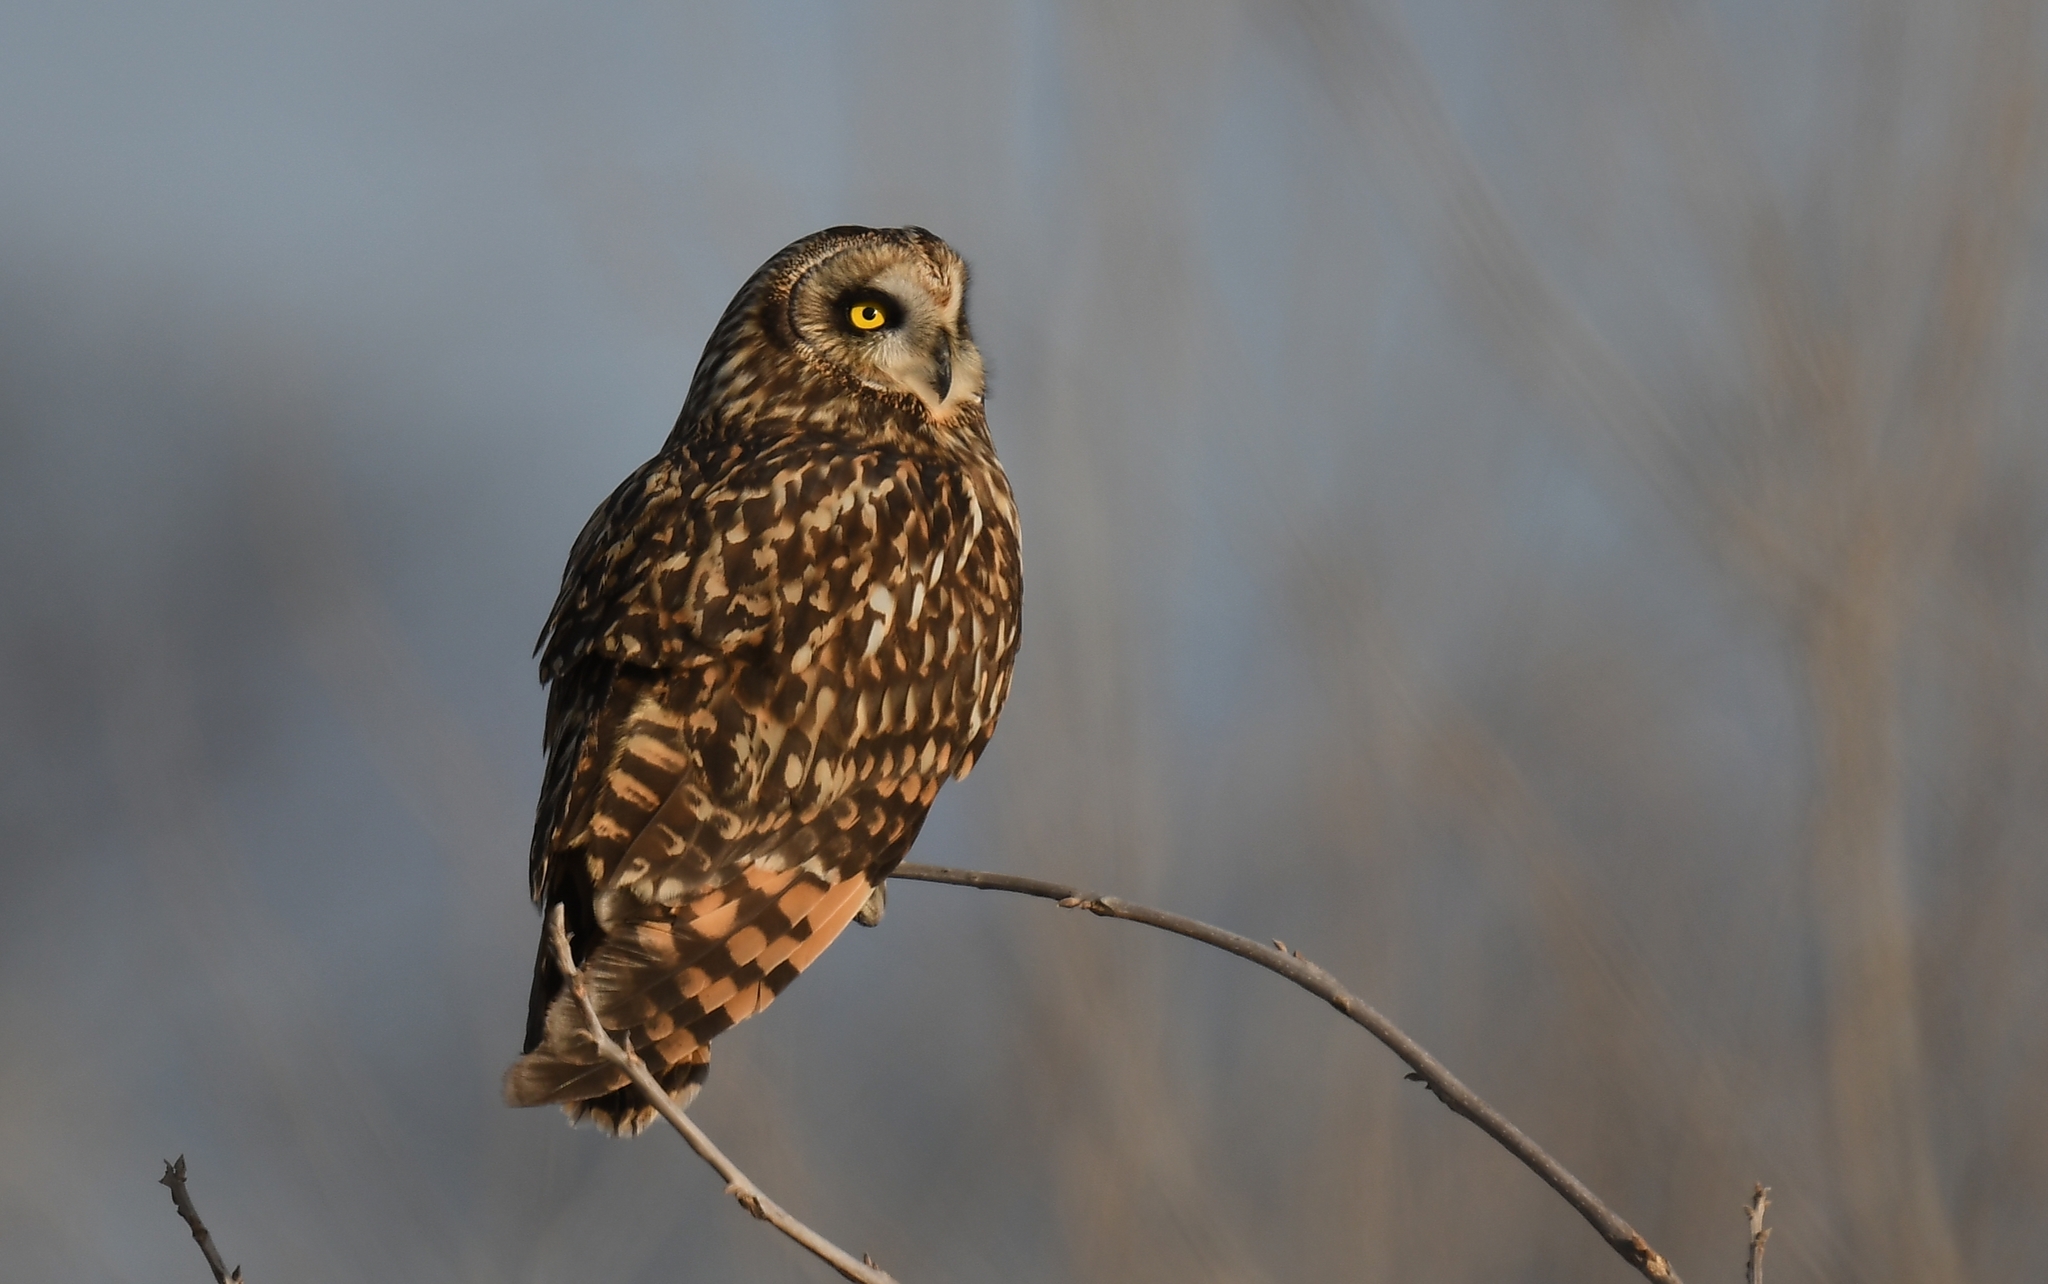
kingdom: Animalia
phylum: Chordata
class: Aves
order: Strigiformes
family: Strigidae
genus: Asio
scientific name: Asio flammeus
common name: Short-eared owl
